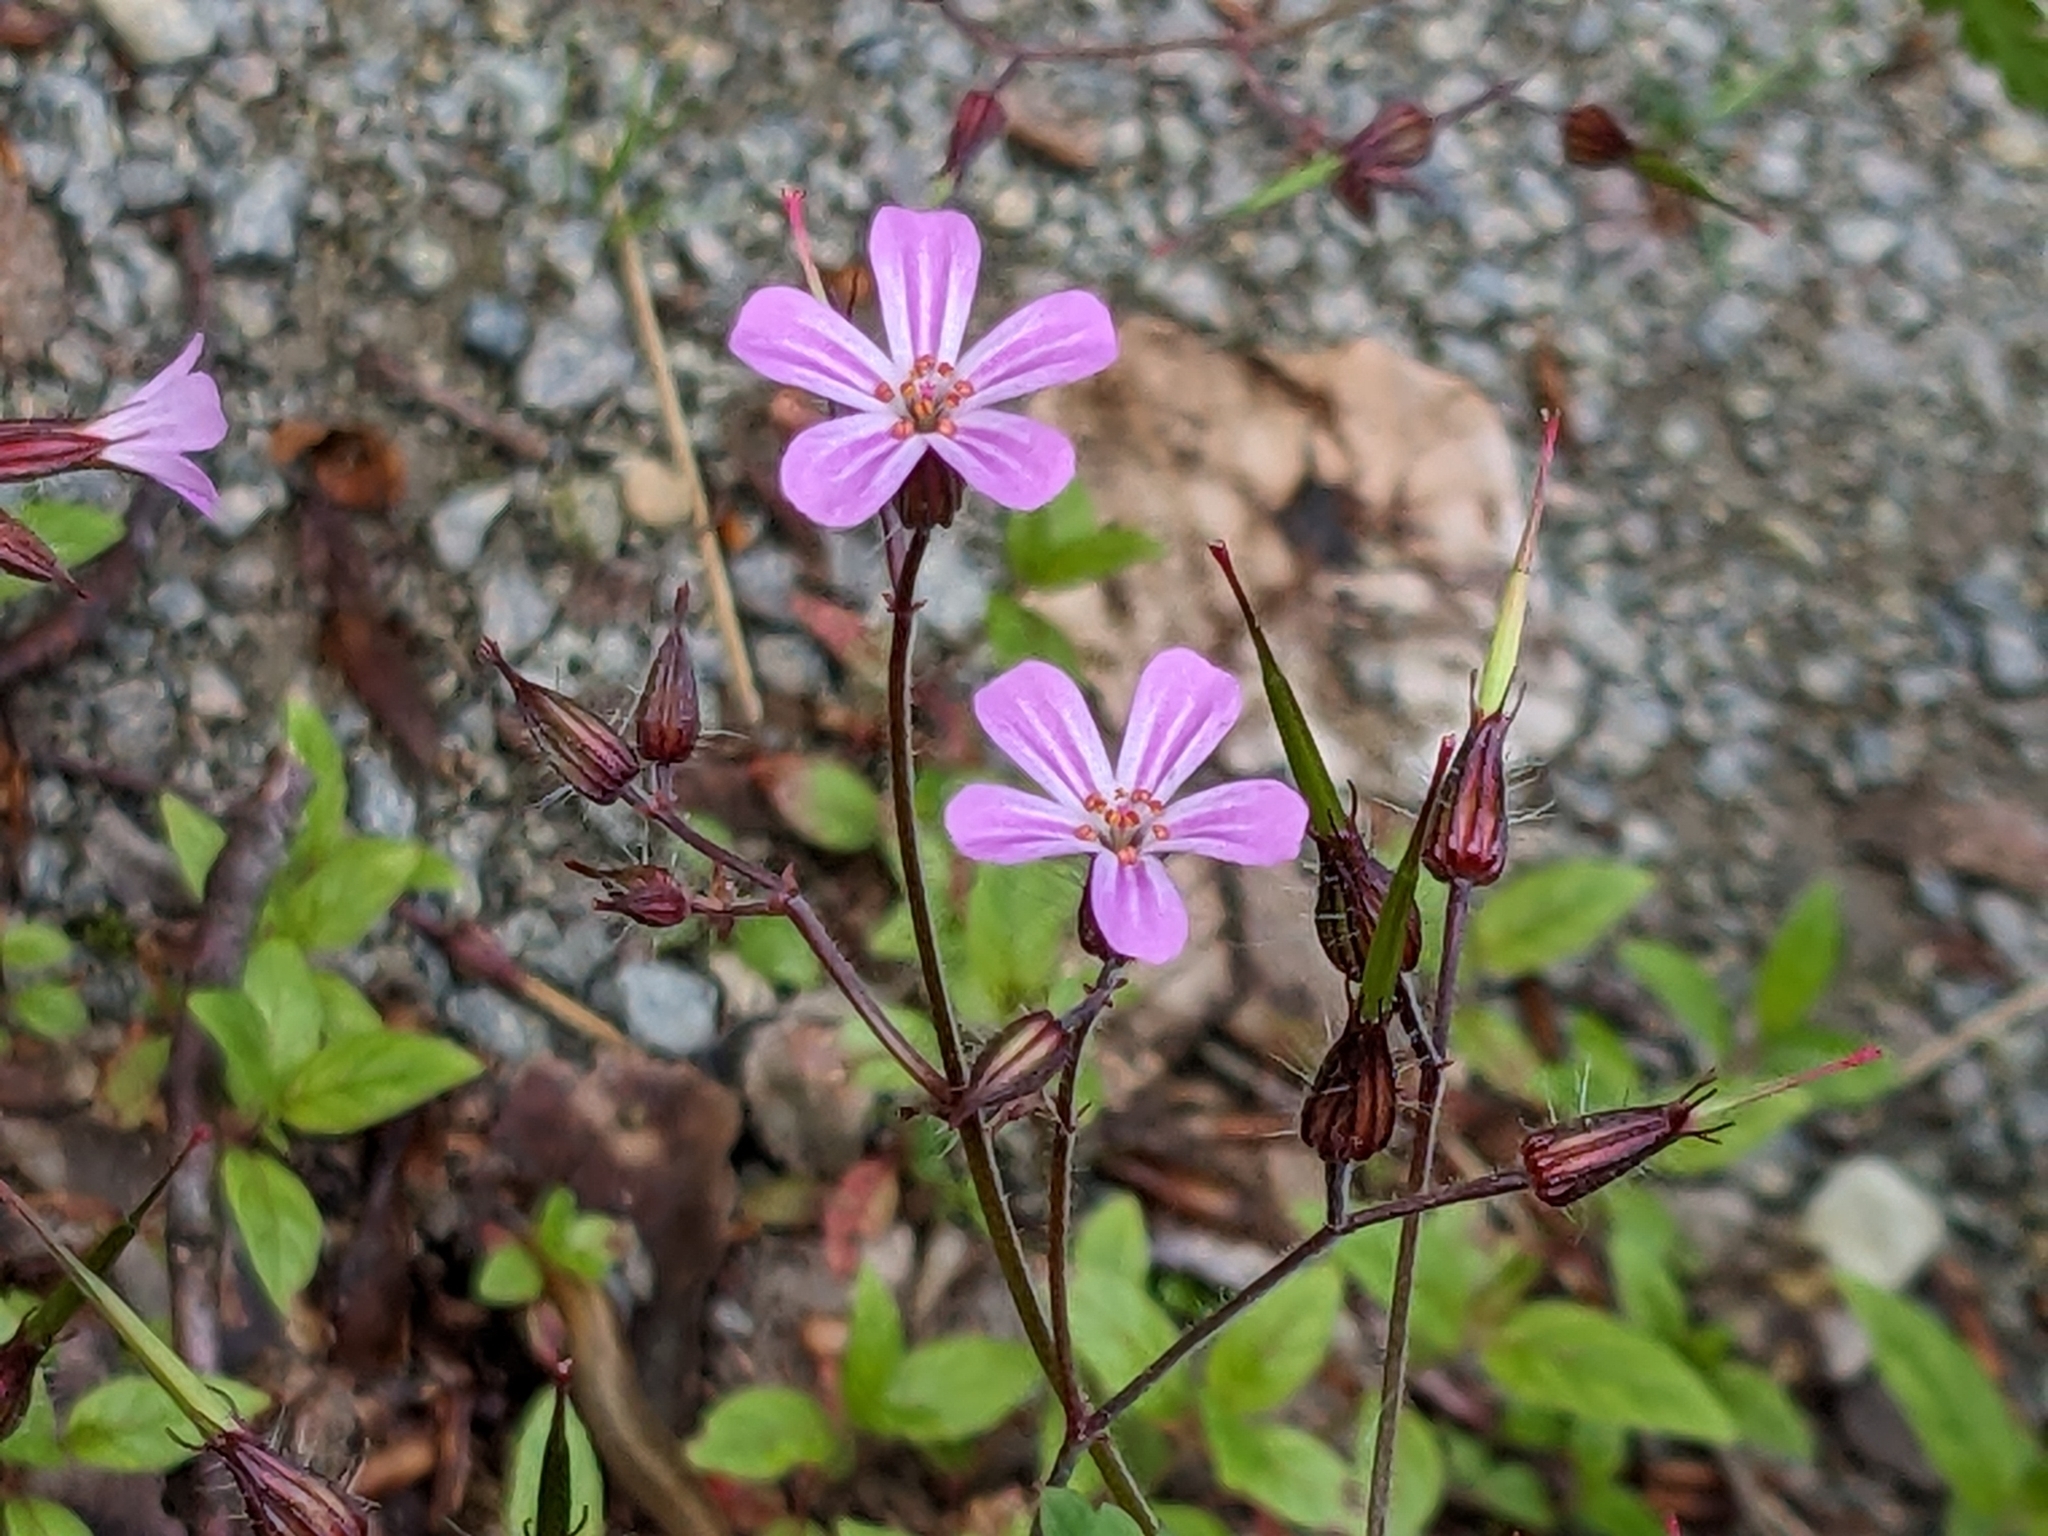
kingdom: Plantae
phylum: Tracheophyta
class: Magnoliopsida
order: Geraniales
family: Geraniaceae
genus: Geranium
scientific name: Geranium robertianum
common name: Herb-robert
